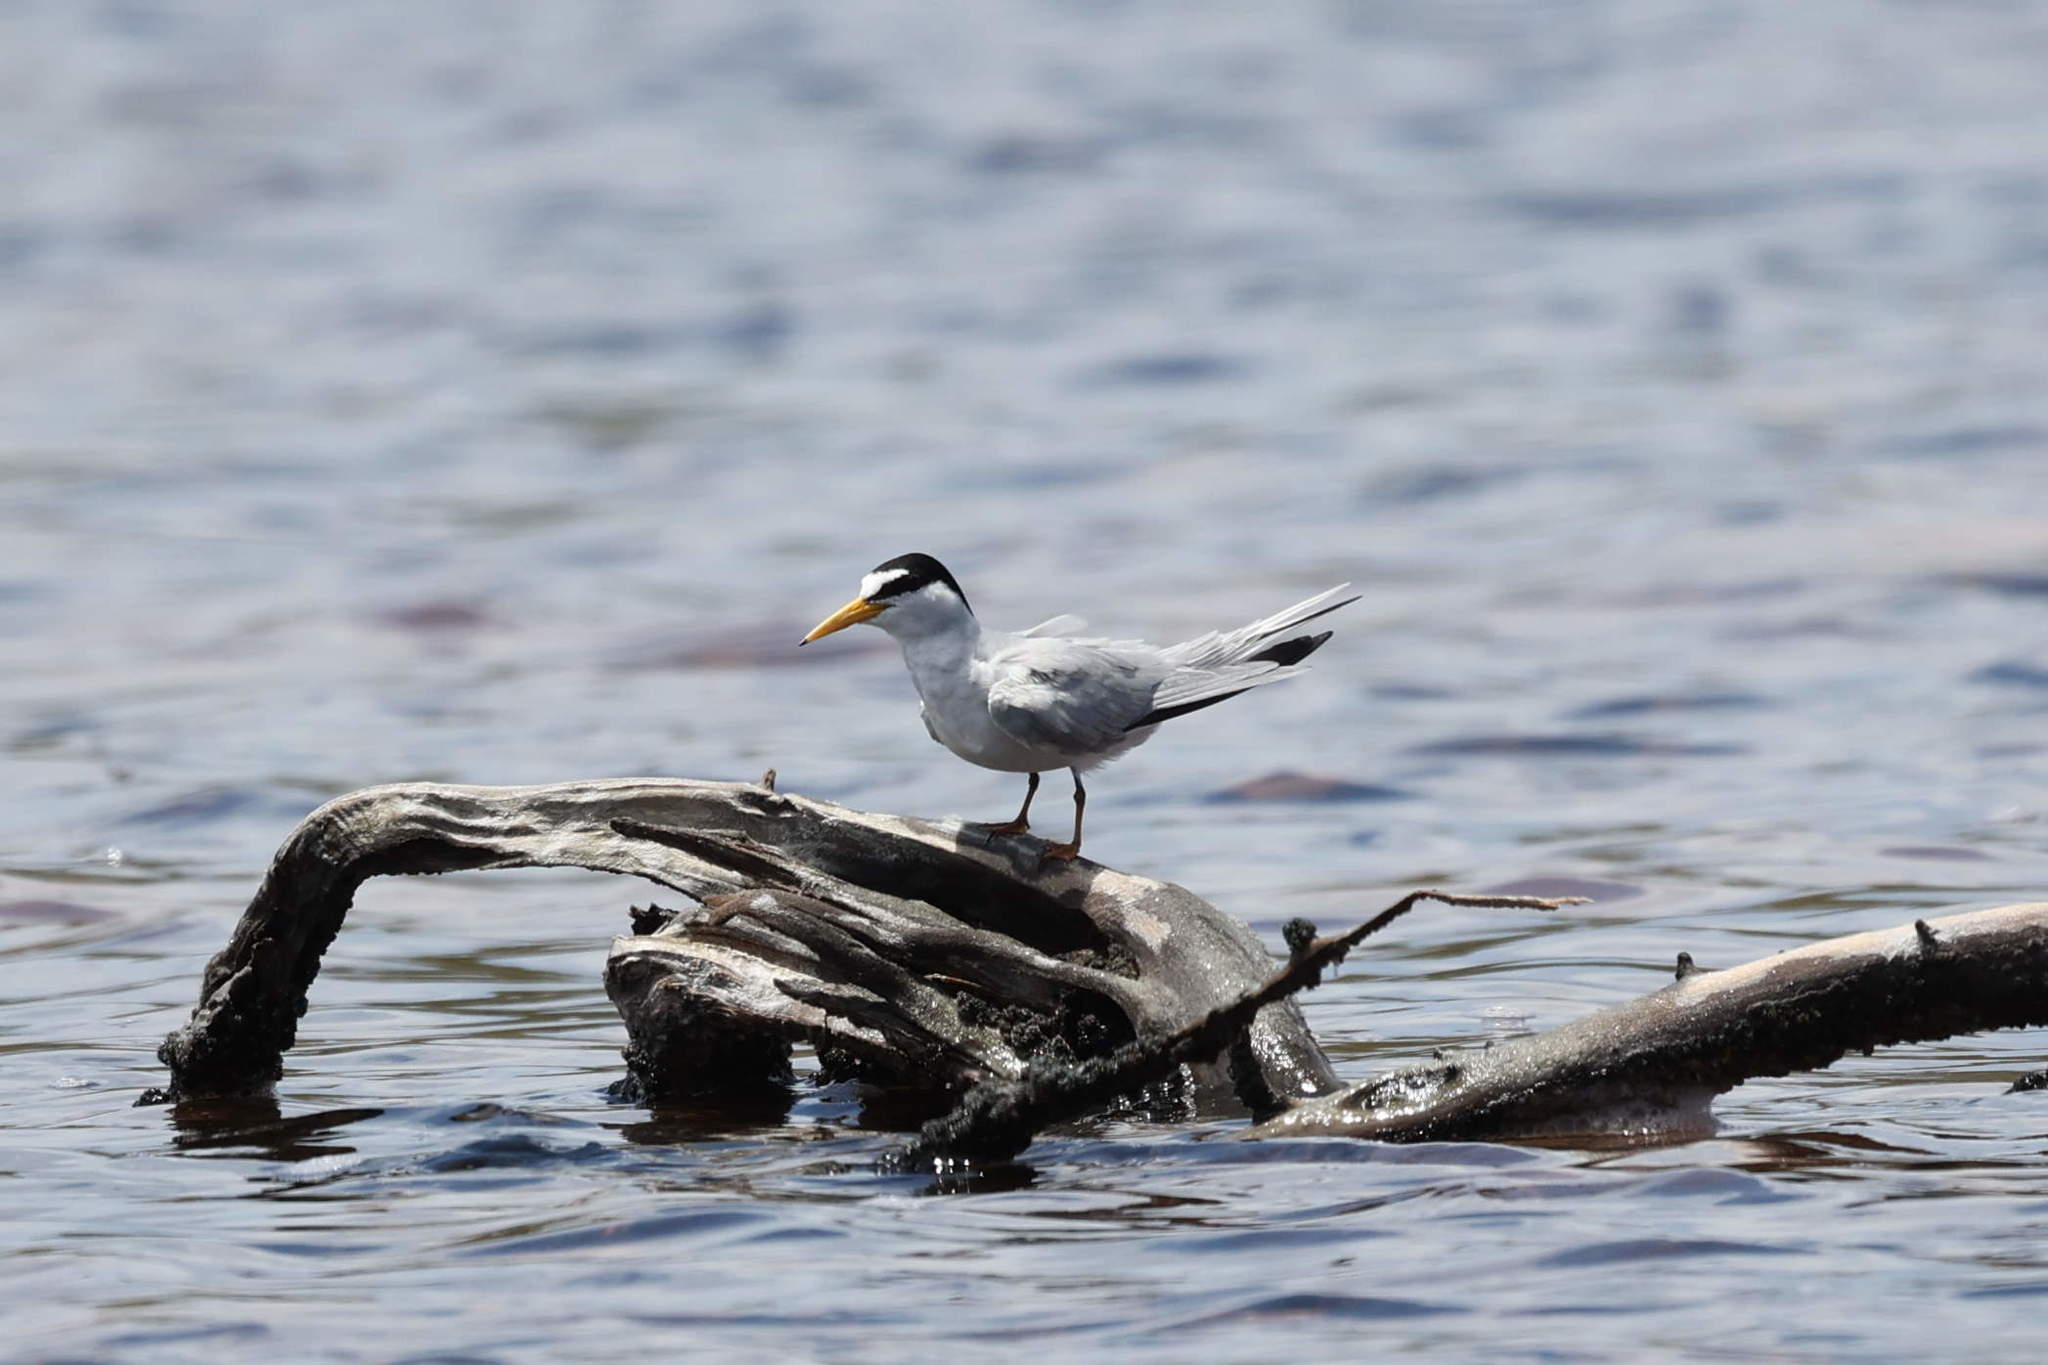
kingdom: Animalia
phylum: Chordata
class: Aves
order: Charadriiformes
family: Laridae
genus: Sternula
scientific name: Sternula antillarum
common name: Least tern
